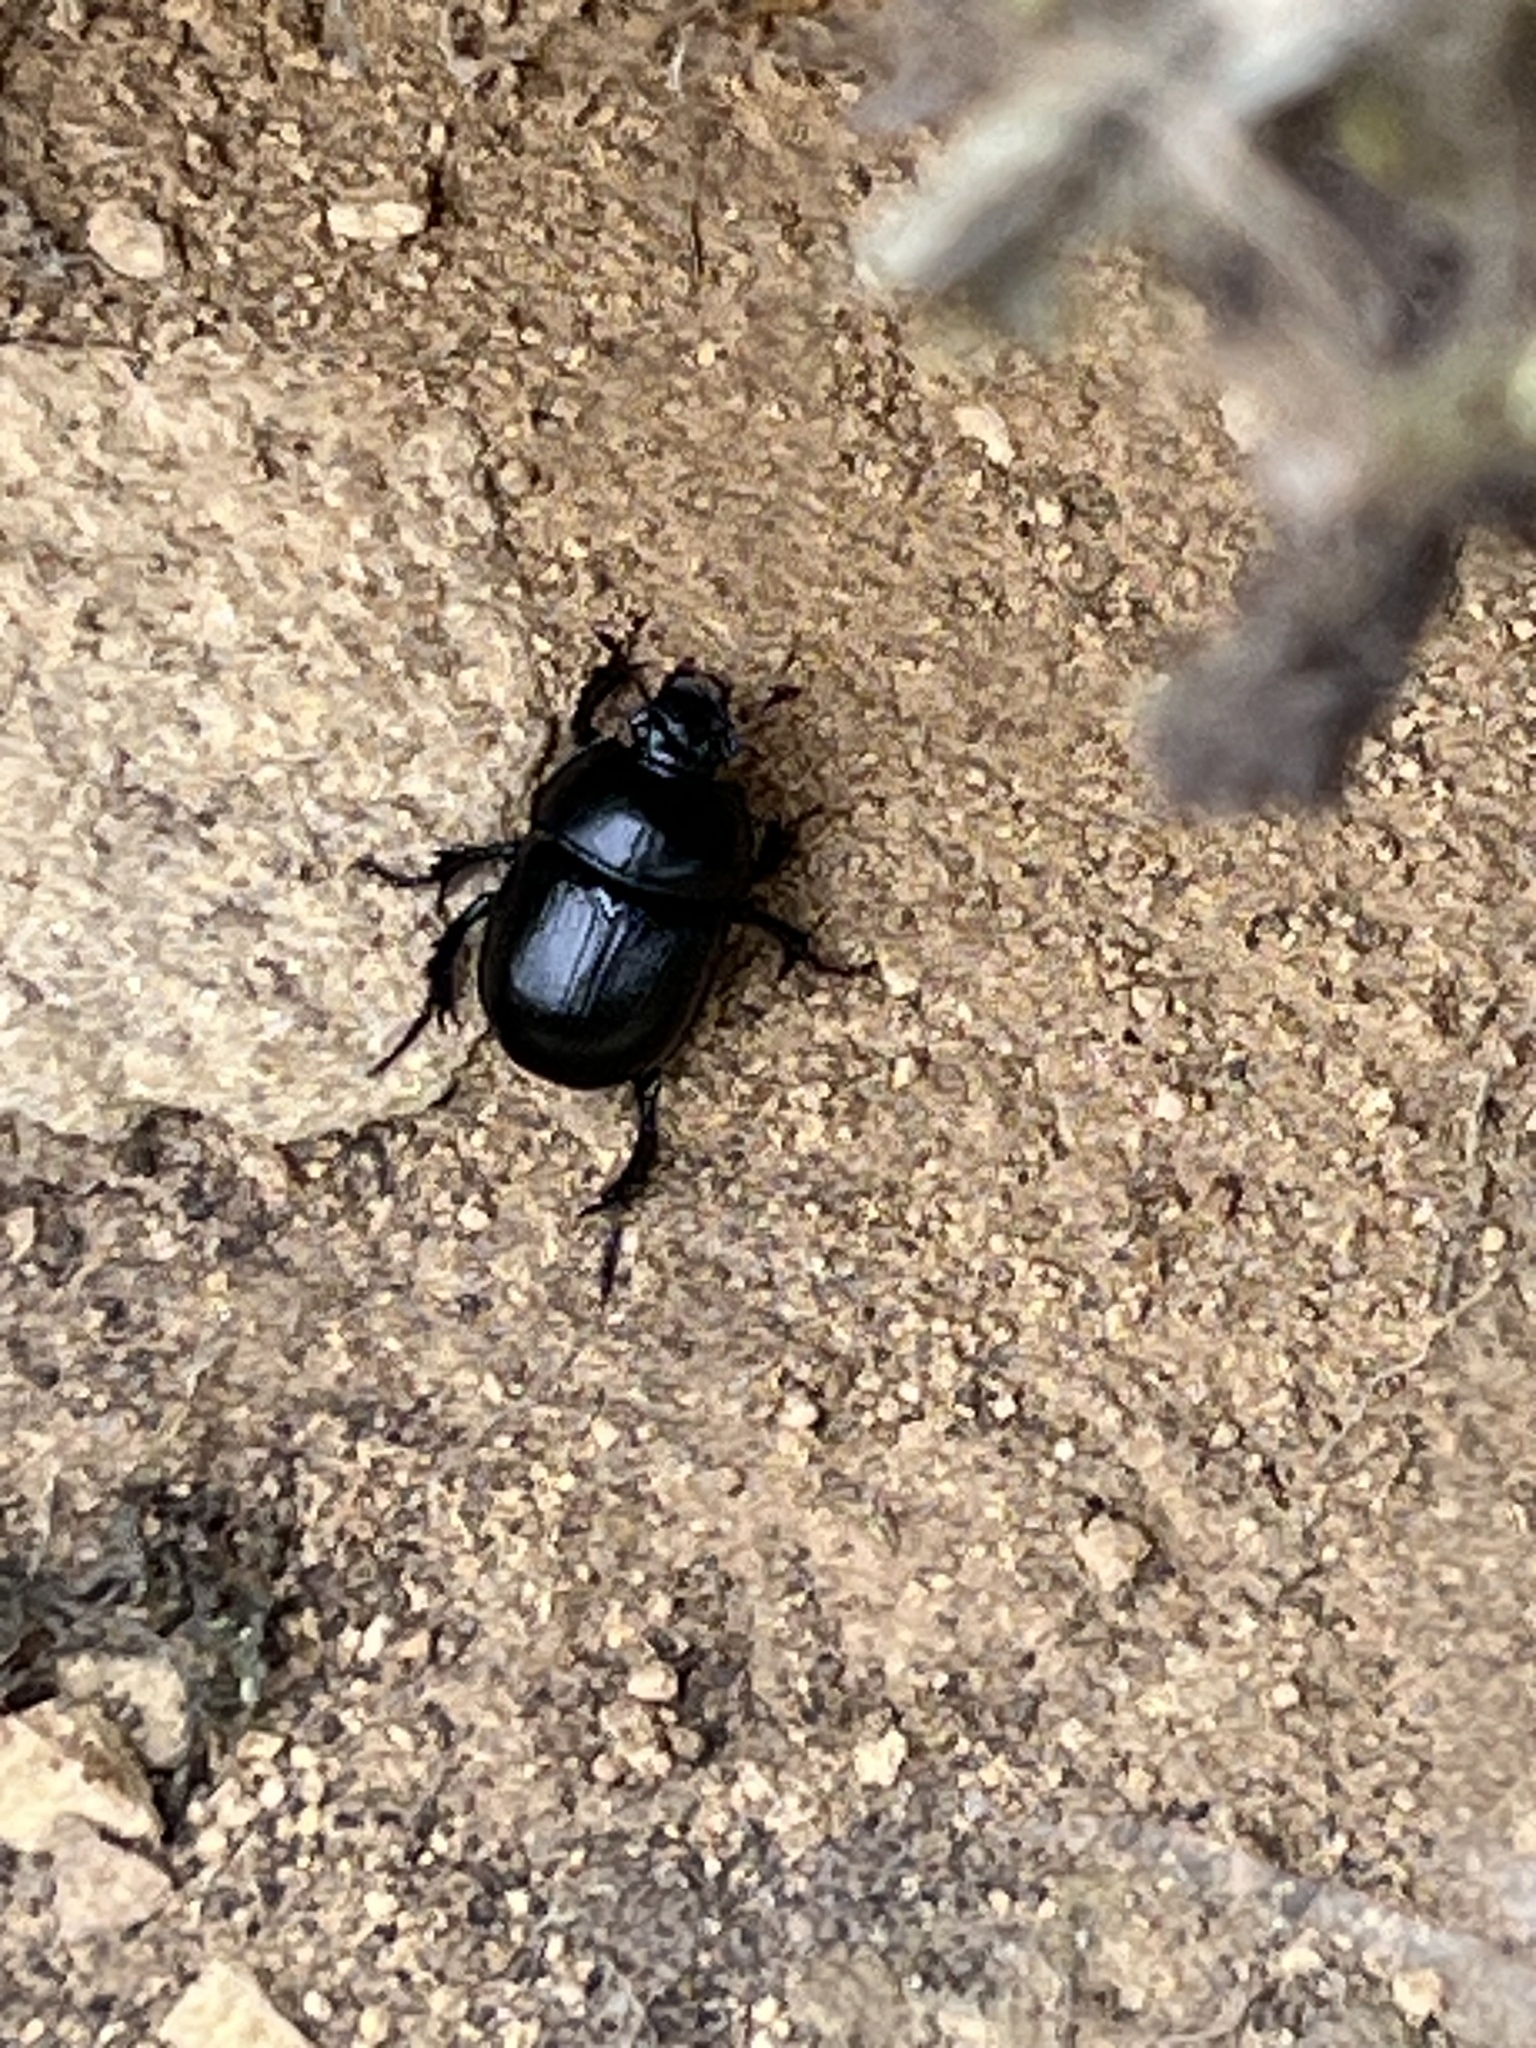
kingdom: Animalia
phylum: Arthropoda
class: Insecta
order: Coleoptera
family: Geotrupidae
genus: Anoplotrupes
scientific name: Anoplotrupes stercorosus
